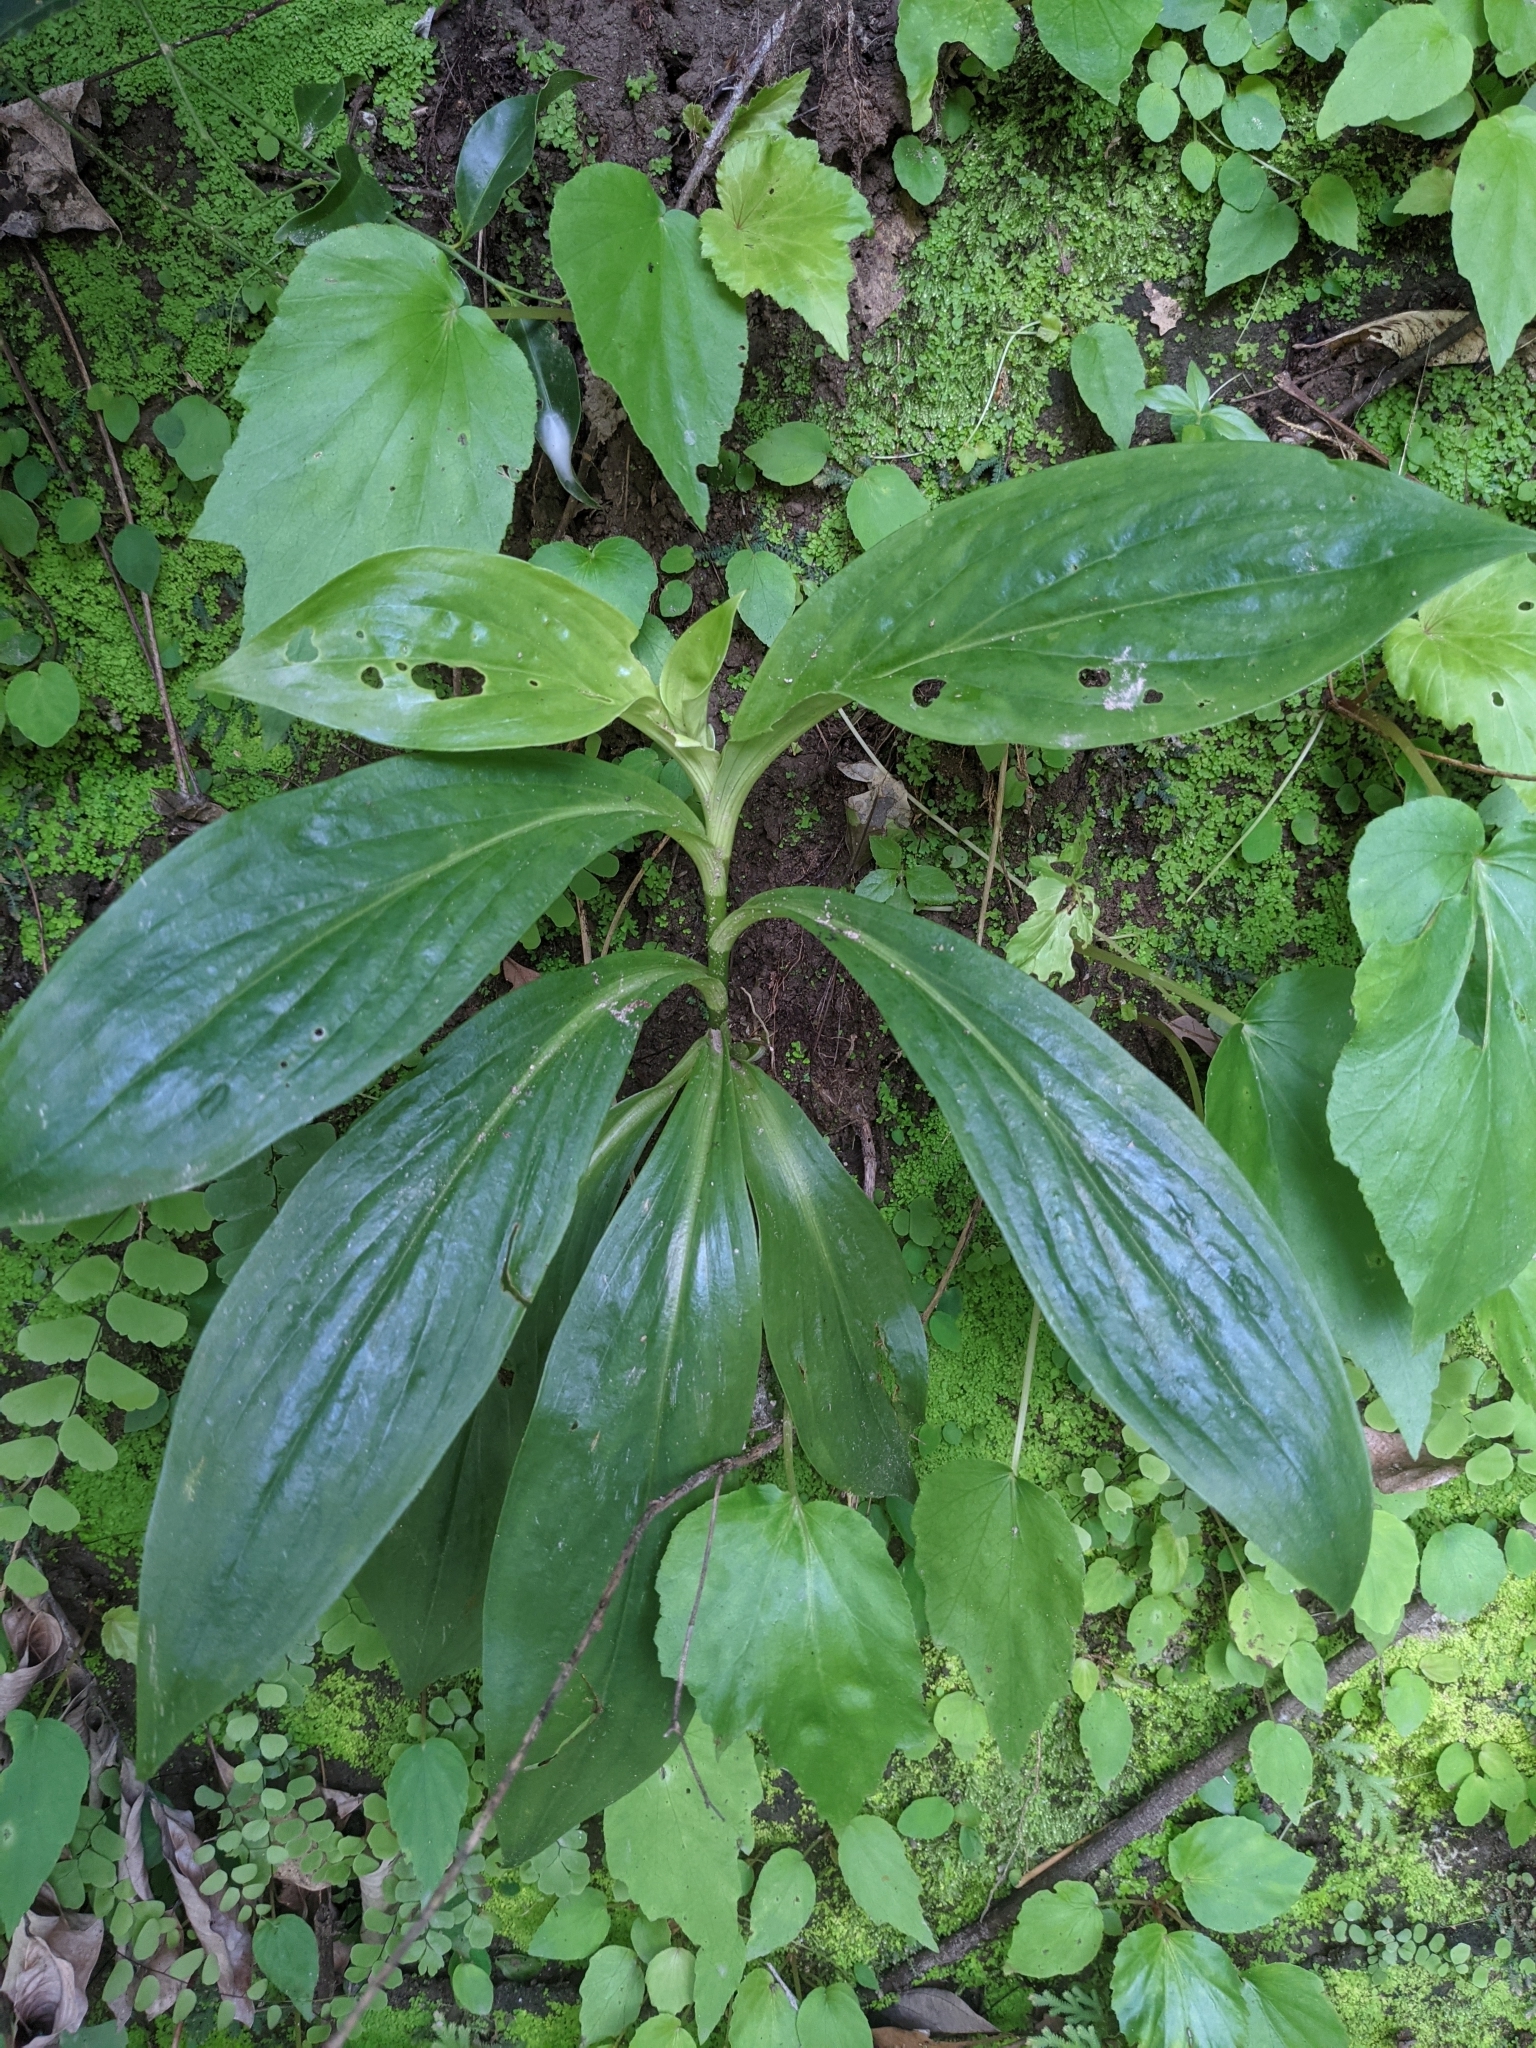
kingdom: Plantae
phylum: Tracheophyta
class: Liliopsida
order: Liliales
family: Liliaceae
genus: Tricyrtis
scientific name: Tricyrtis formosana
